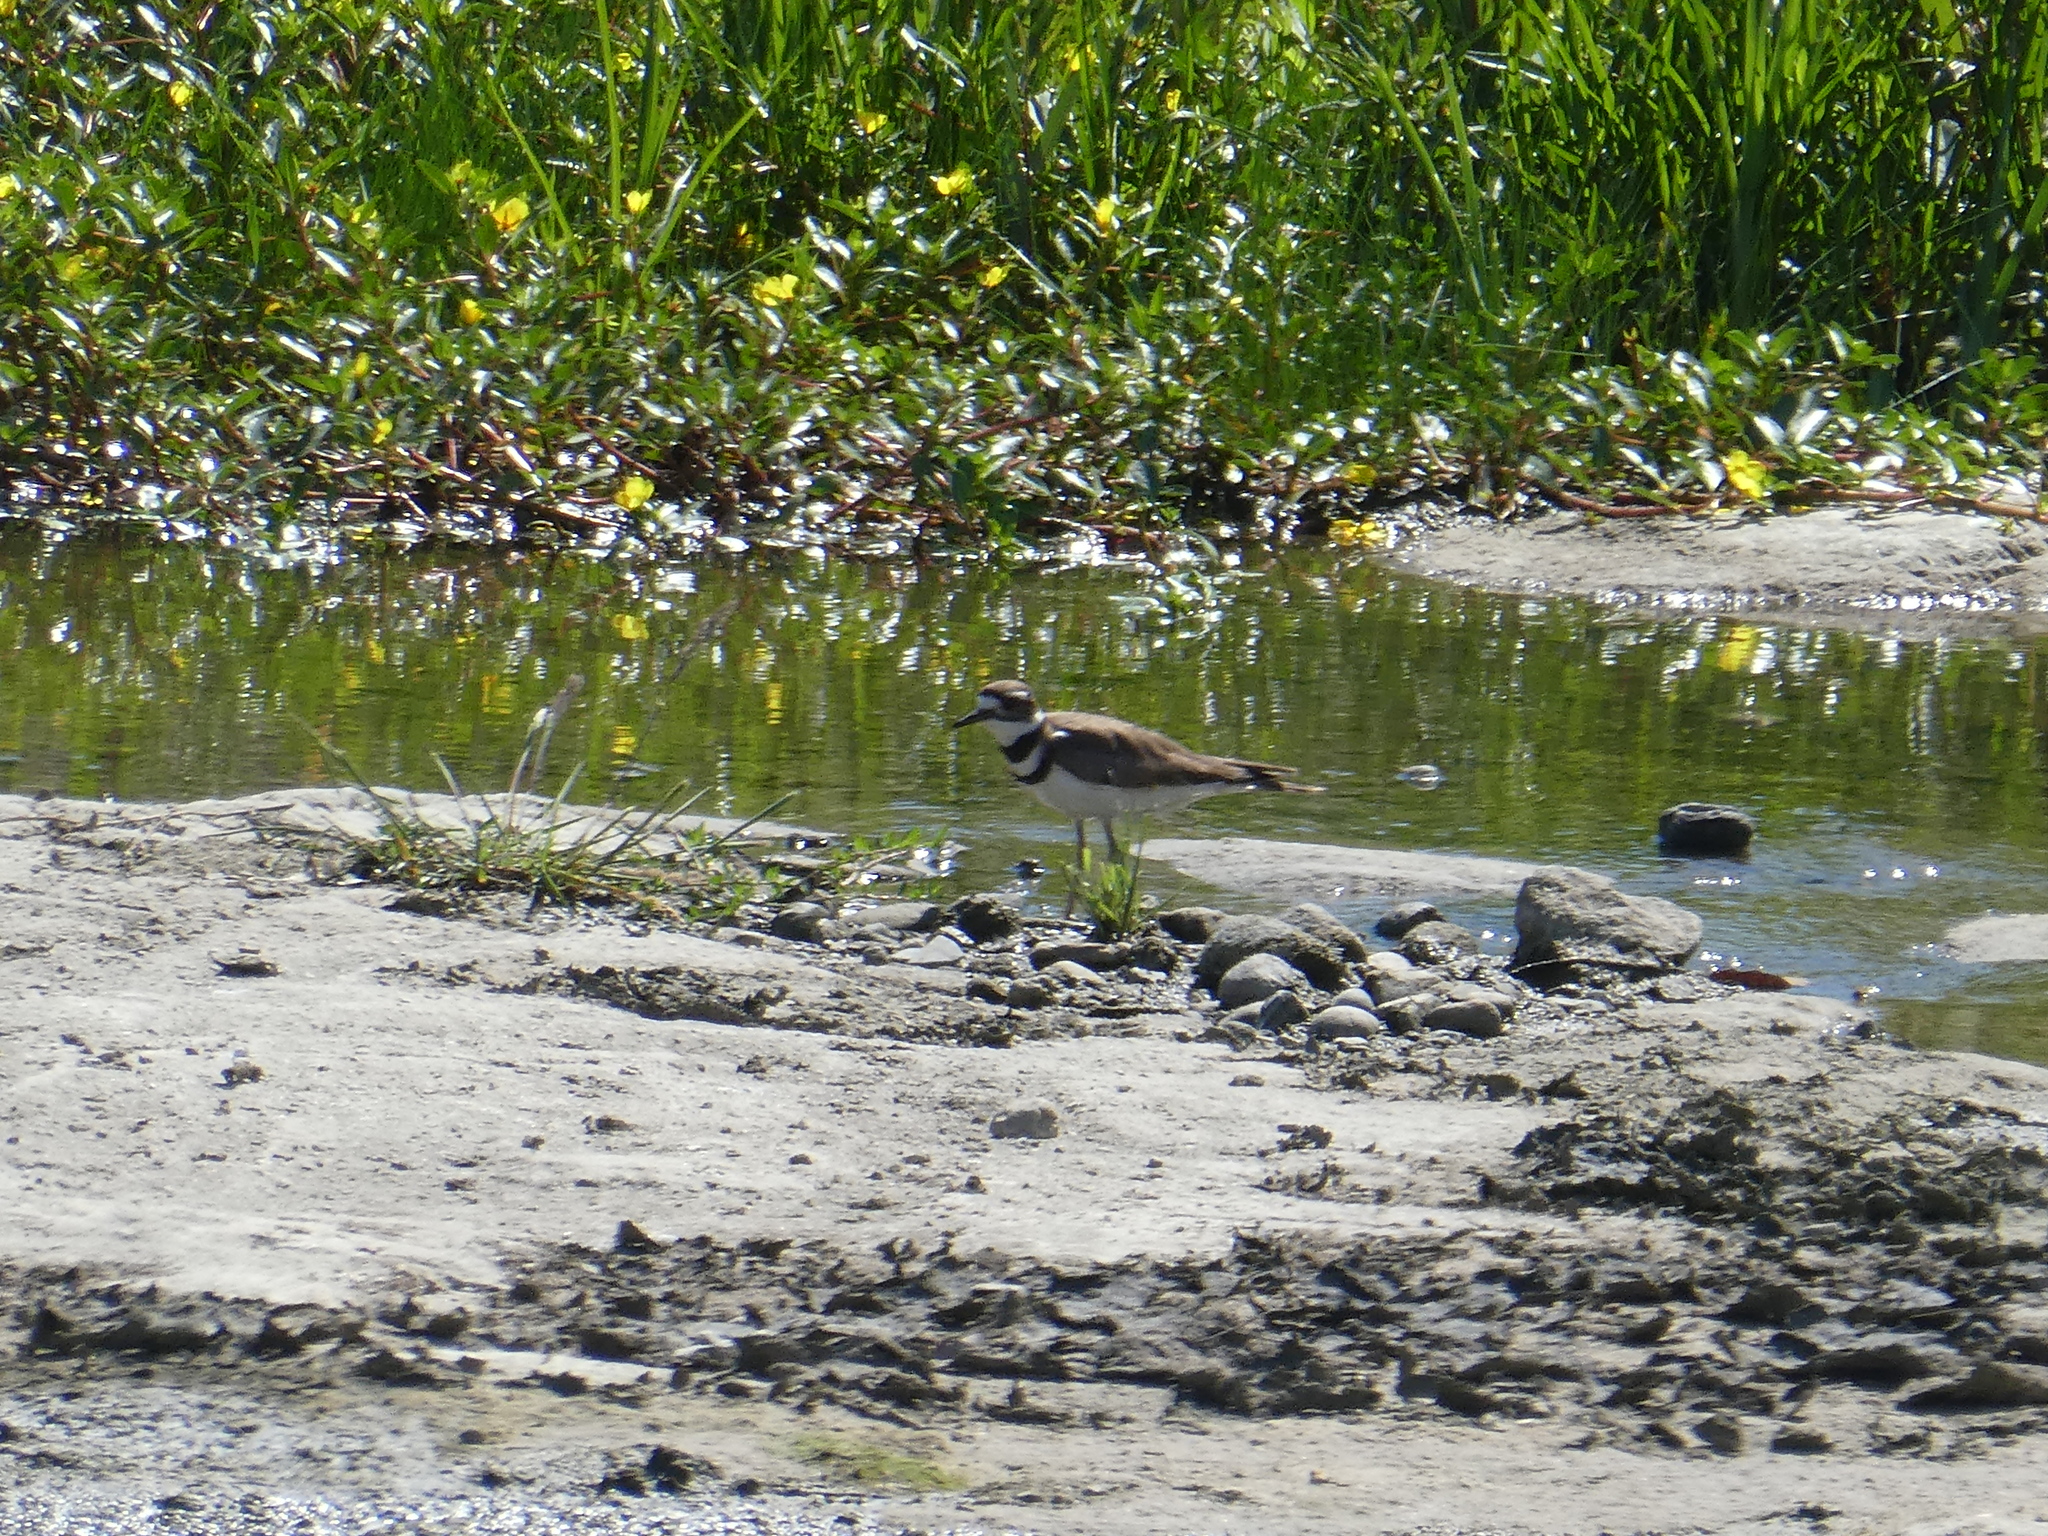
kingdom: Animalia
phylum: Chordata
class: Aves
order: Charadriiformes
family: Charadriidae
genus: Charadrius
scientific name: Charadrius vociferus
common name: Killdeer
